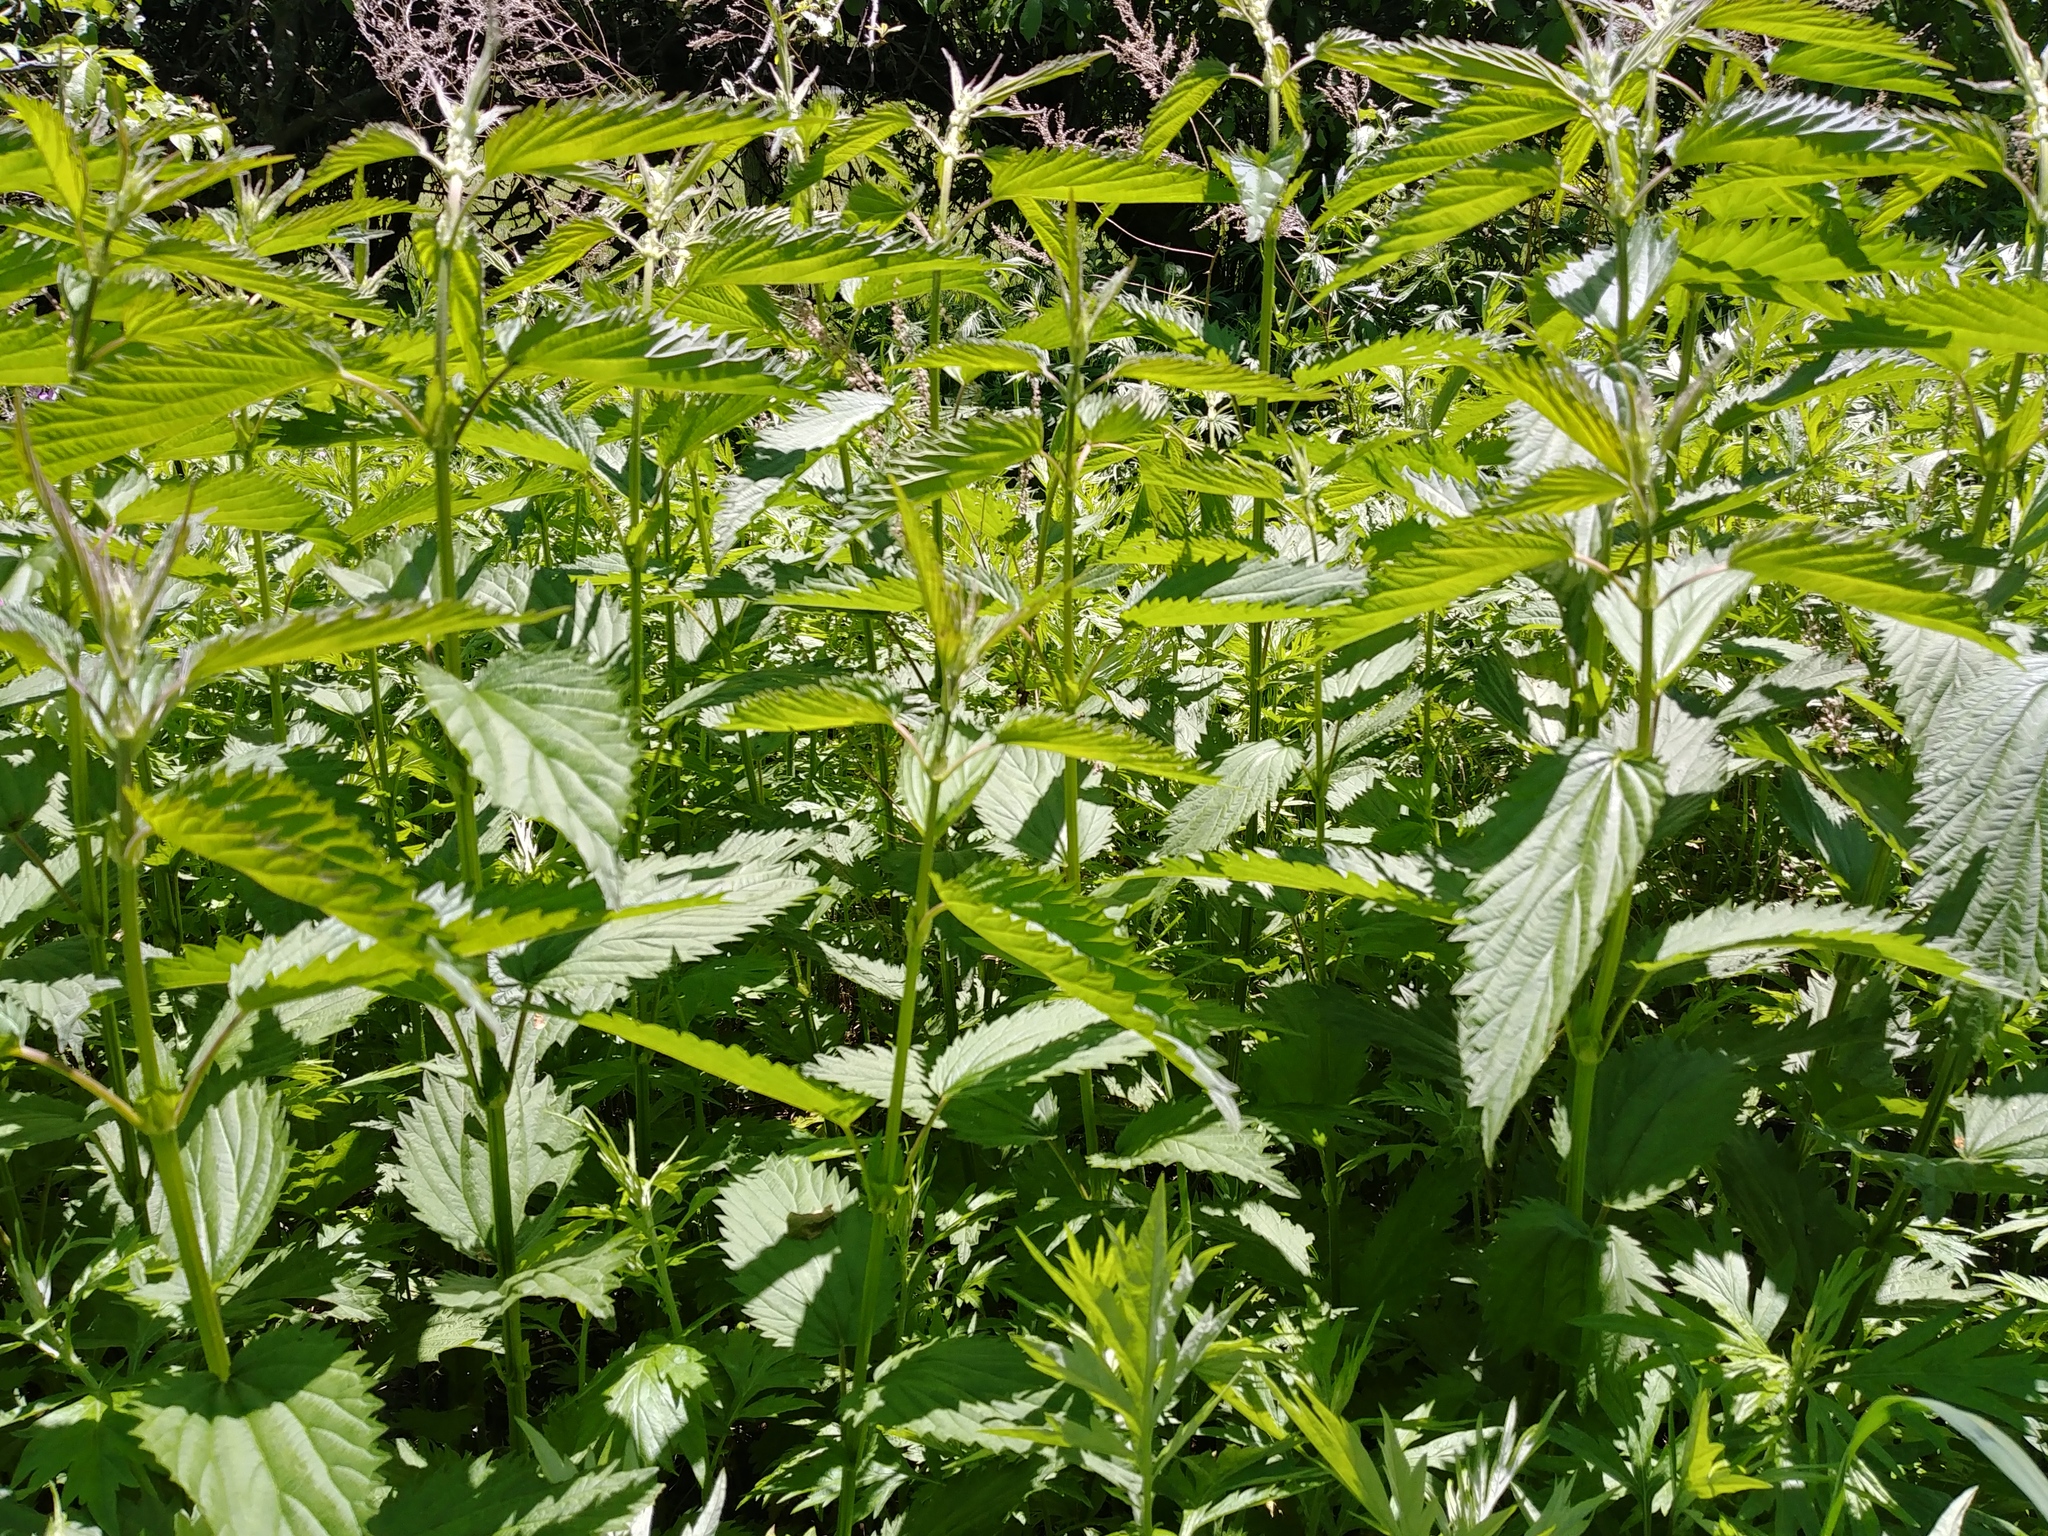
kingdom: Plantae
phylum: Tracheophyta
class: Magnoliopsida
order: Rosales
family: Urticaceae
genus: Urtica
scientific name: Urtica dioica
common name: Common nettle
